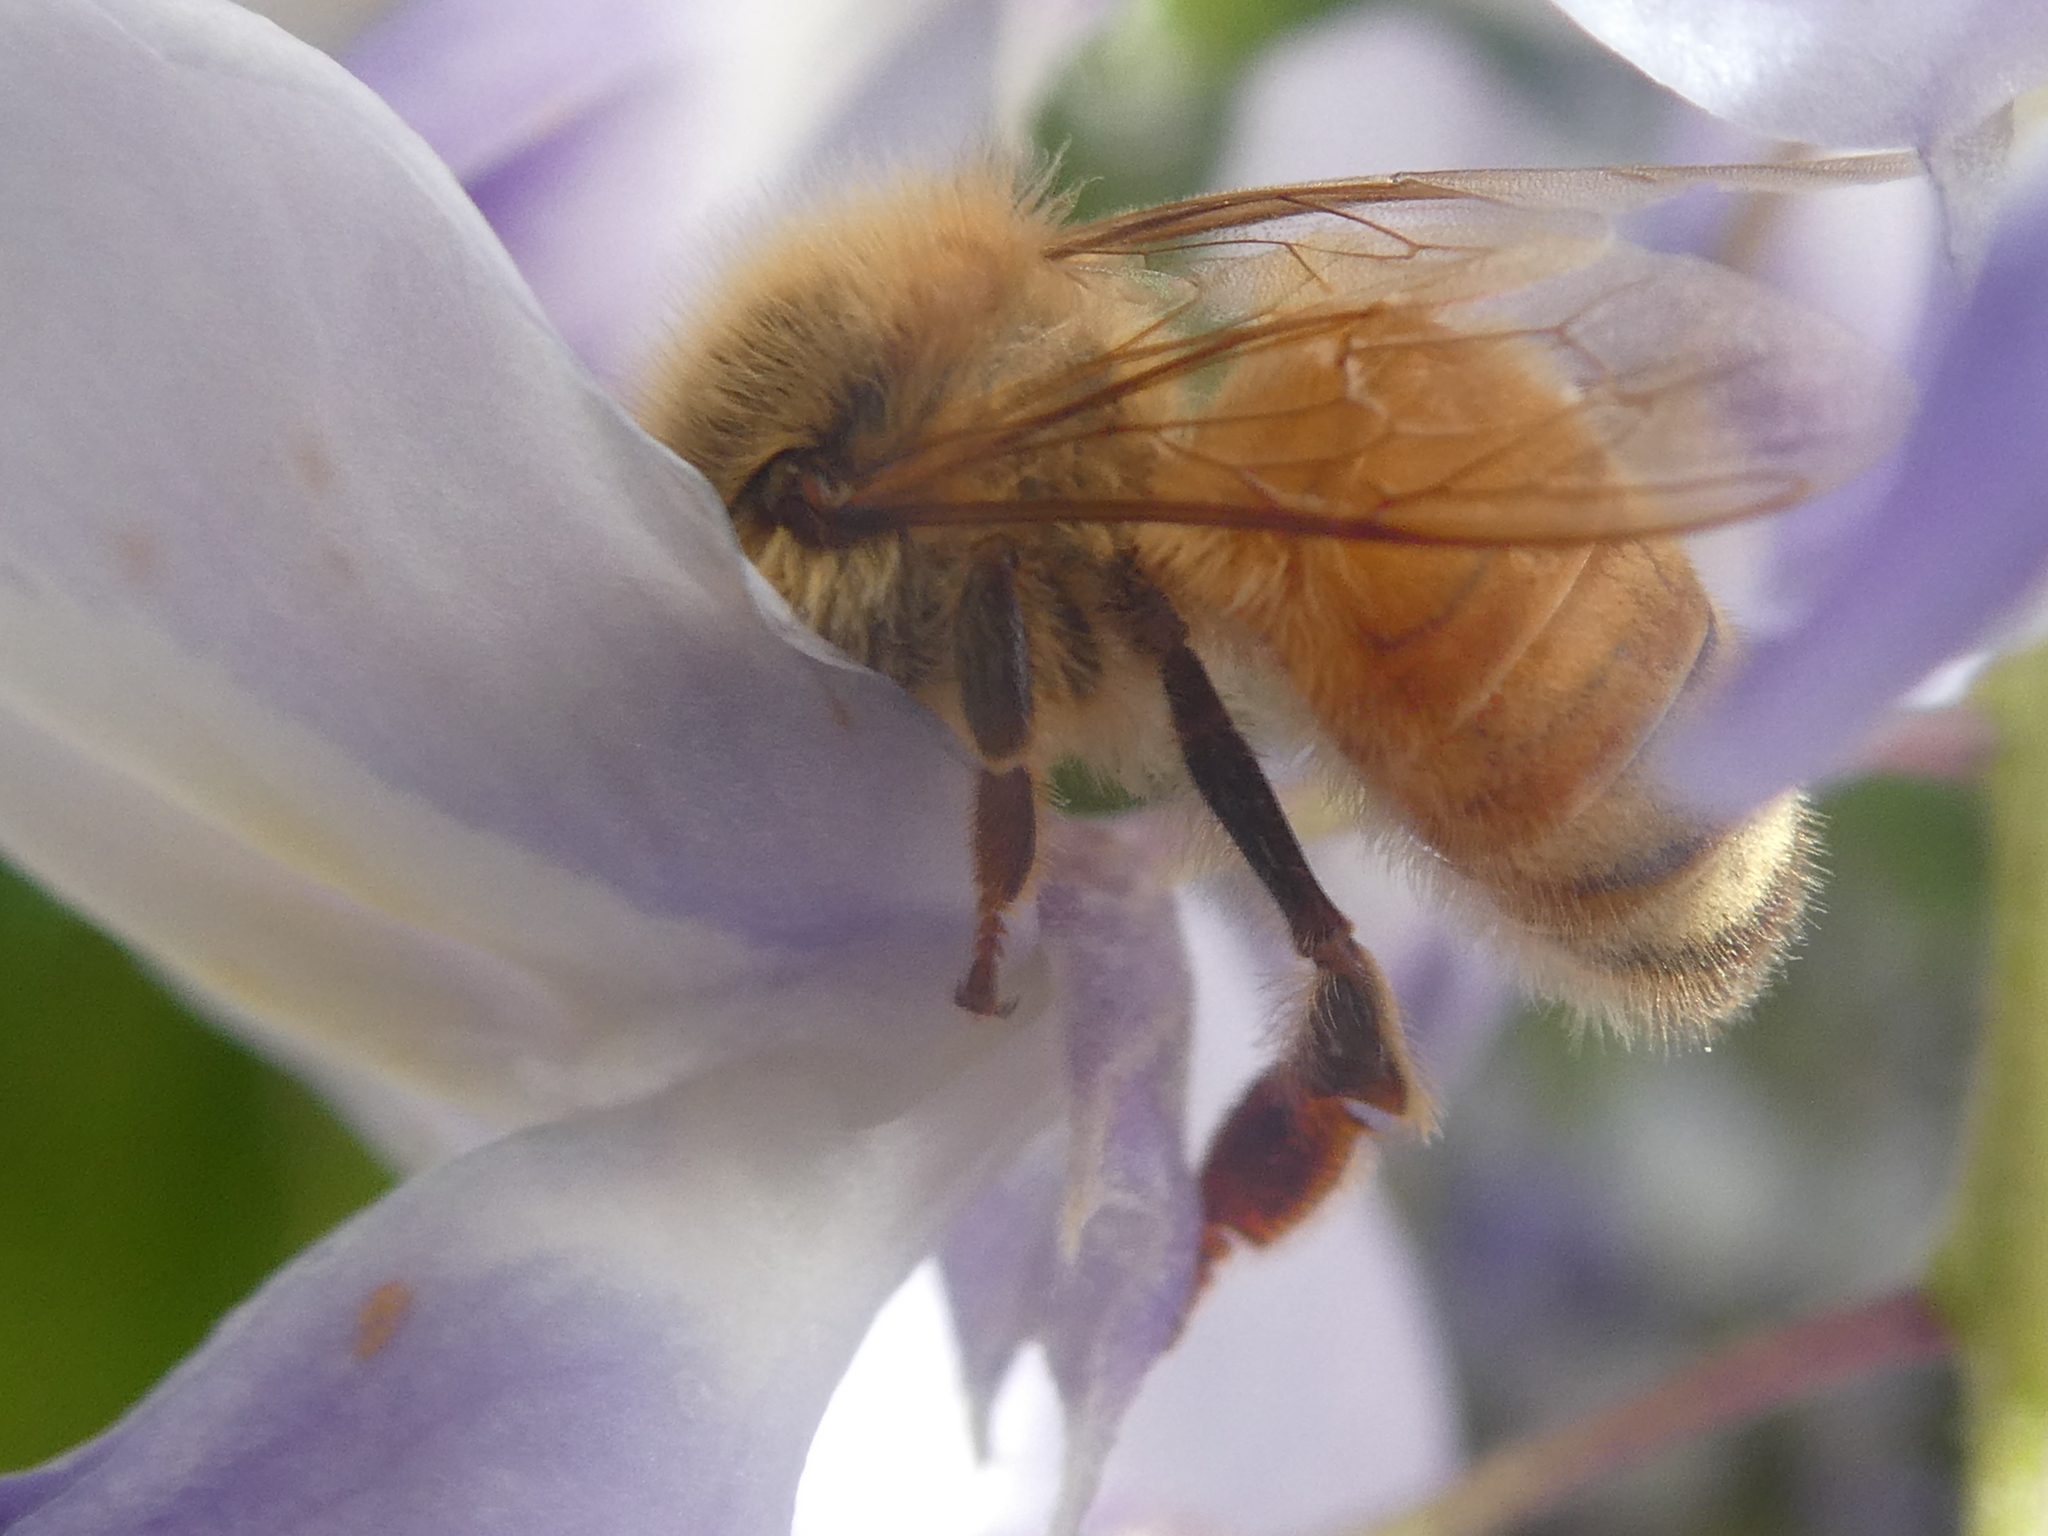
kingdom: Animalia
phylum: Arthropoda
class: Insecta
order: Hymenoptera
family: Apidae
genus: Apis
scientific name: Apis mellifera
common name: Honey bee
